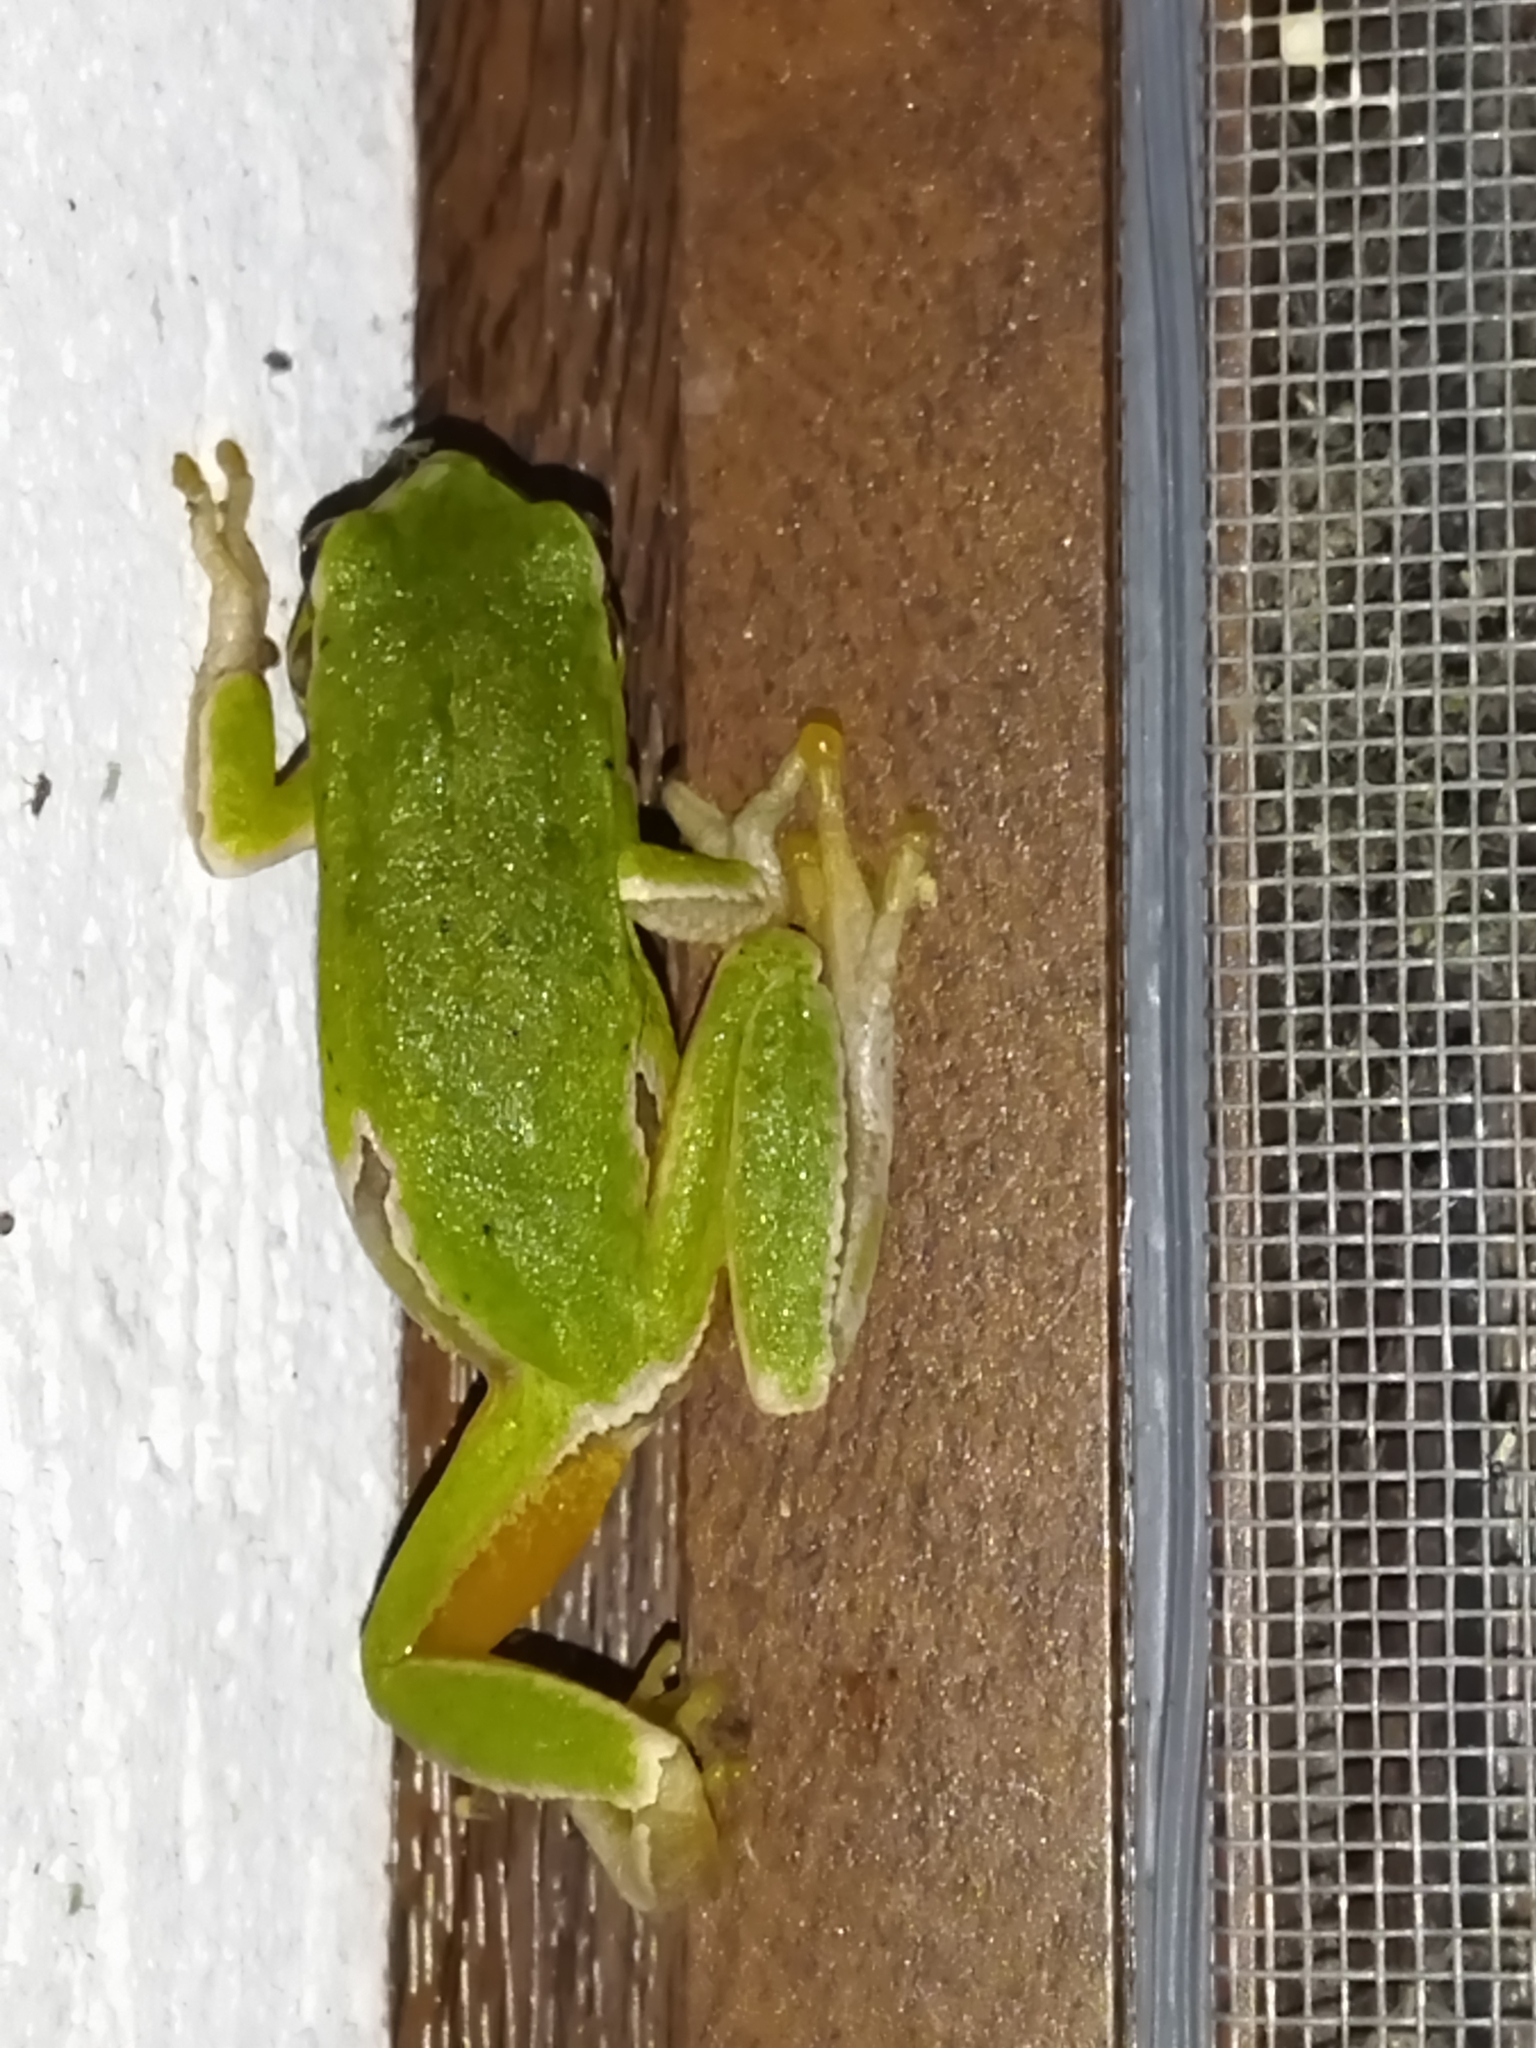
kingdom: Animalia
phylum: Chordata
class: Amphibia
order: Anura
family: Hylidae
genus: Hyla
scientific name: Hyla orientalis
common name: Caucasian treefrog
